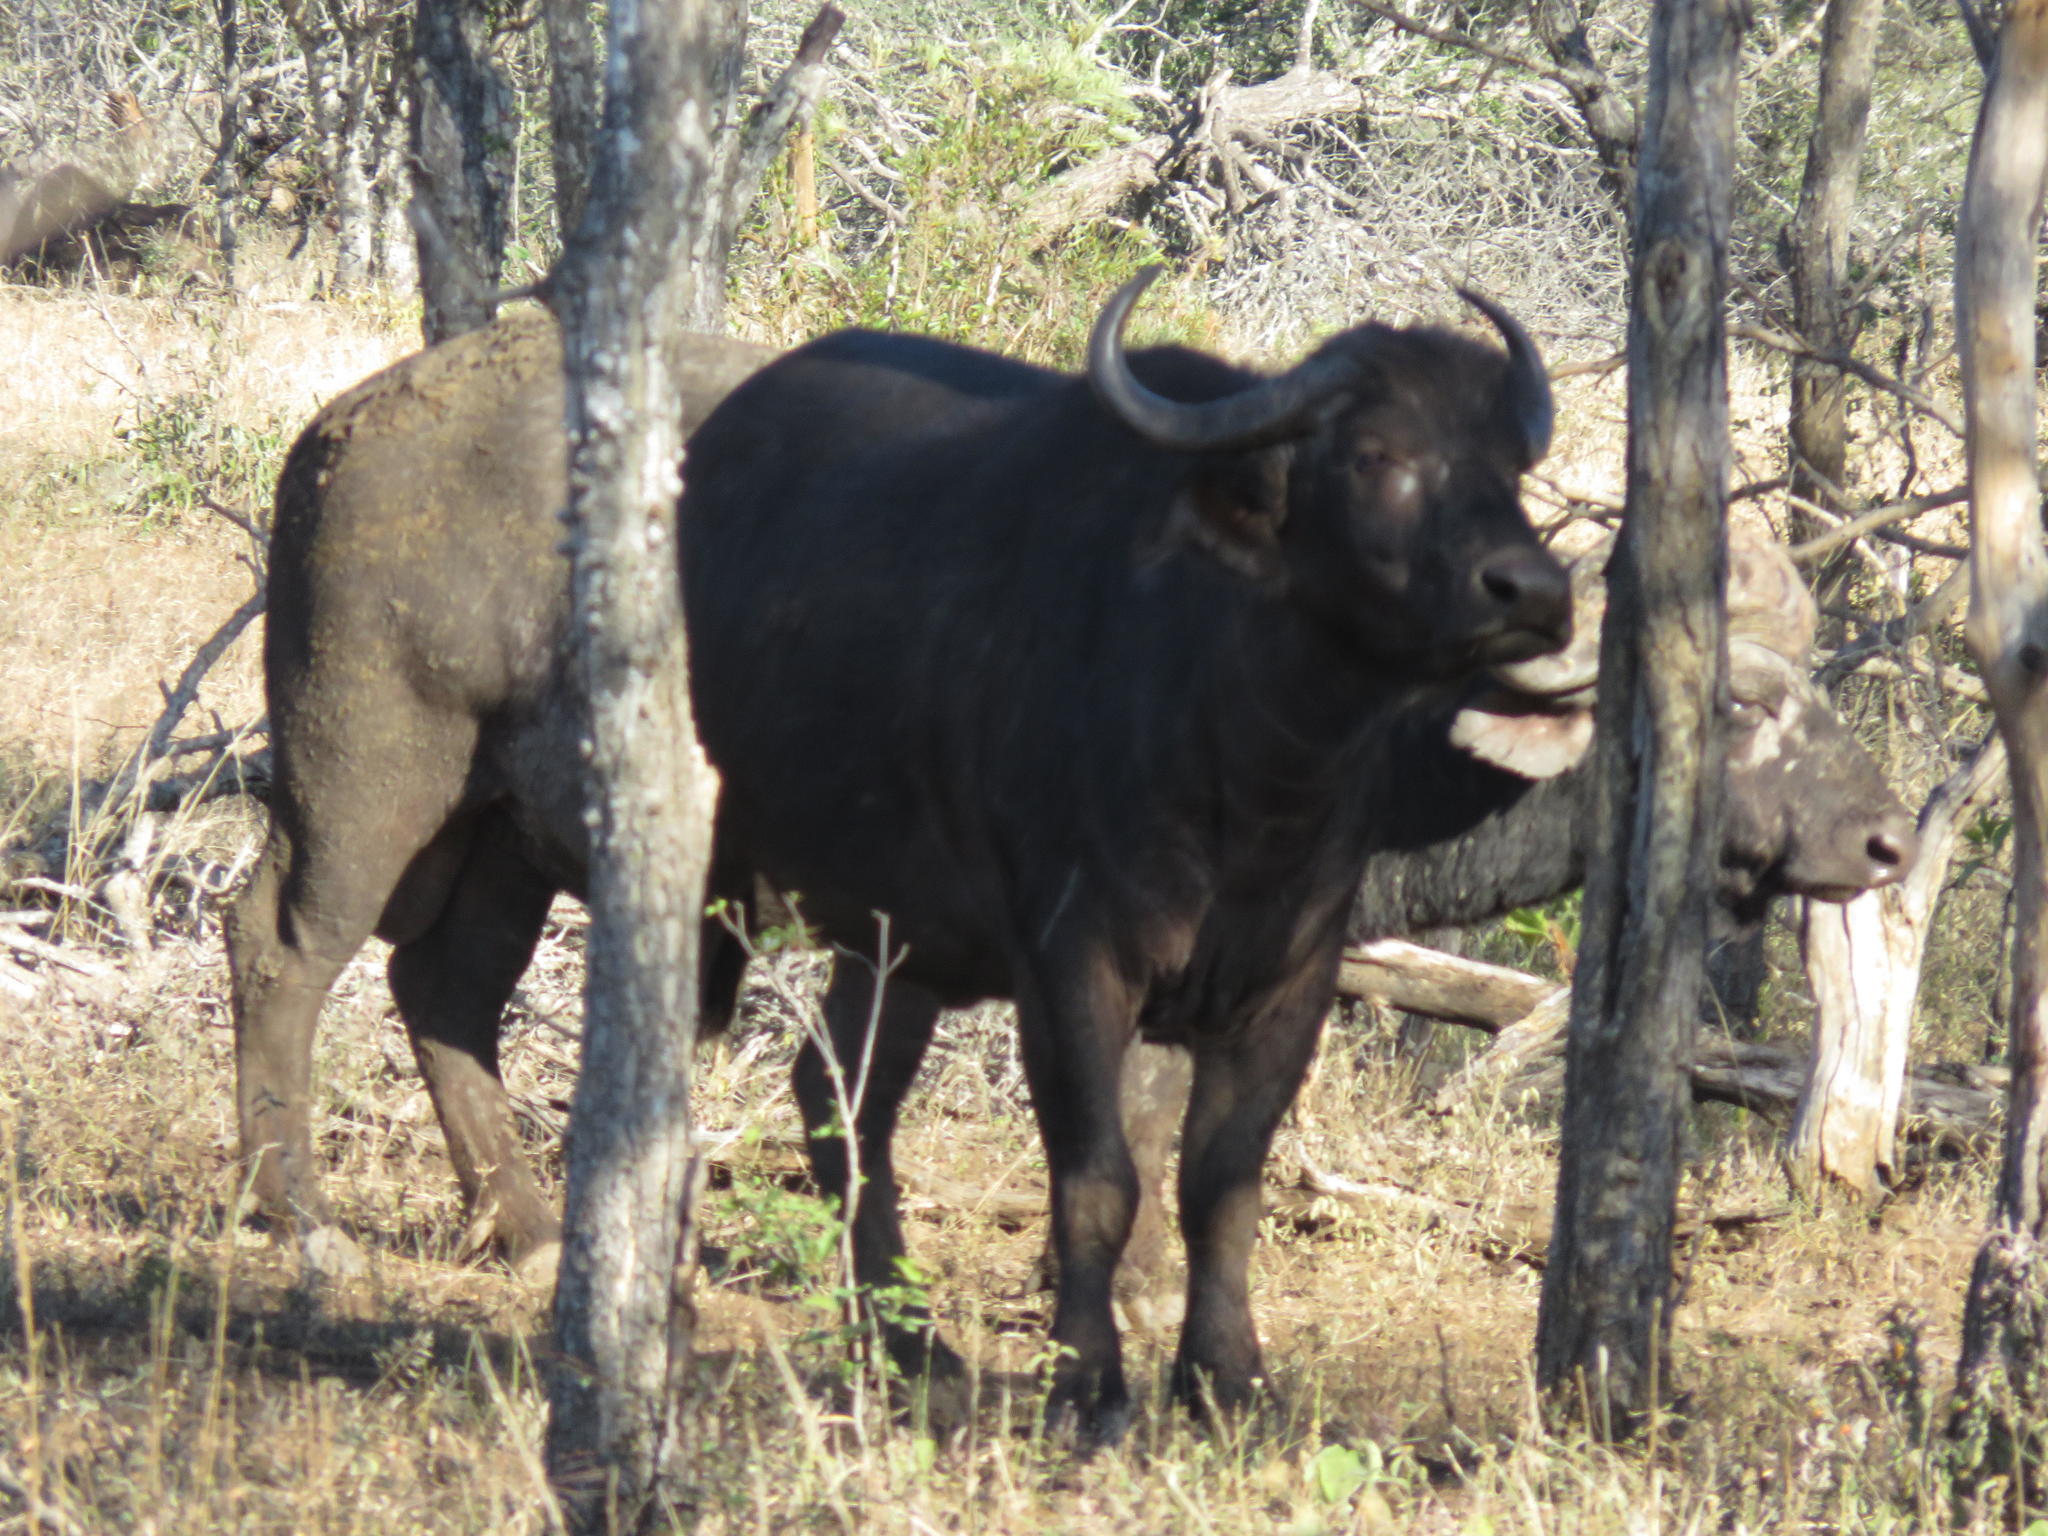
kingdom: Animalia
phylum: Chordata
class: Mammalia
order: Artiodactyla
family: Bovidae
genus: Syncerus
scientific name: Syncerus caffer
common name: African buffalo
